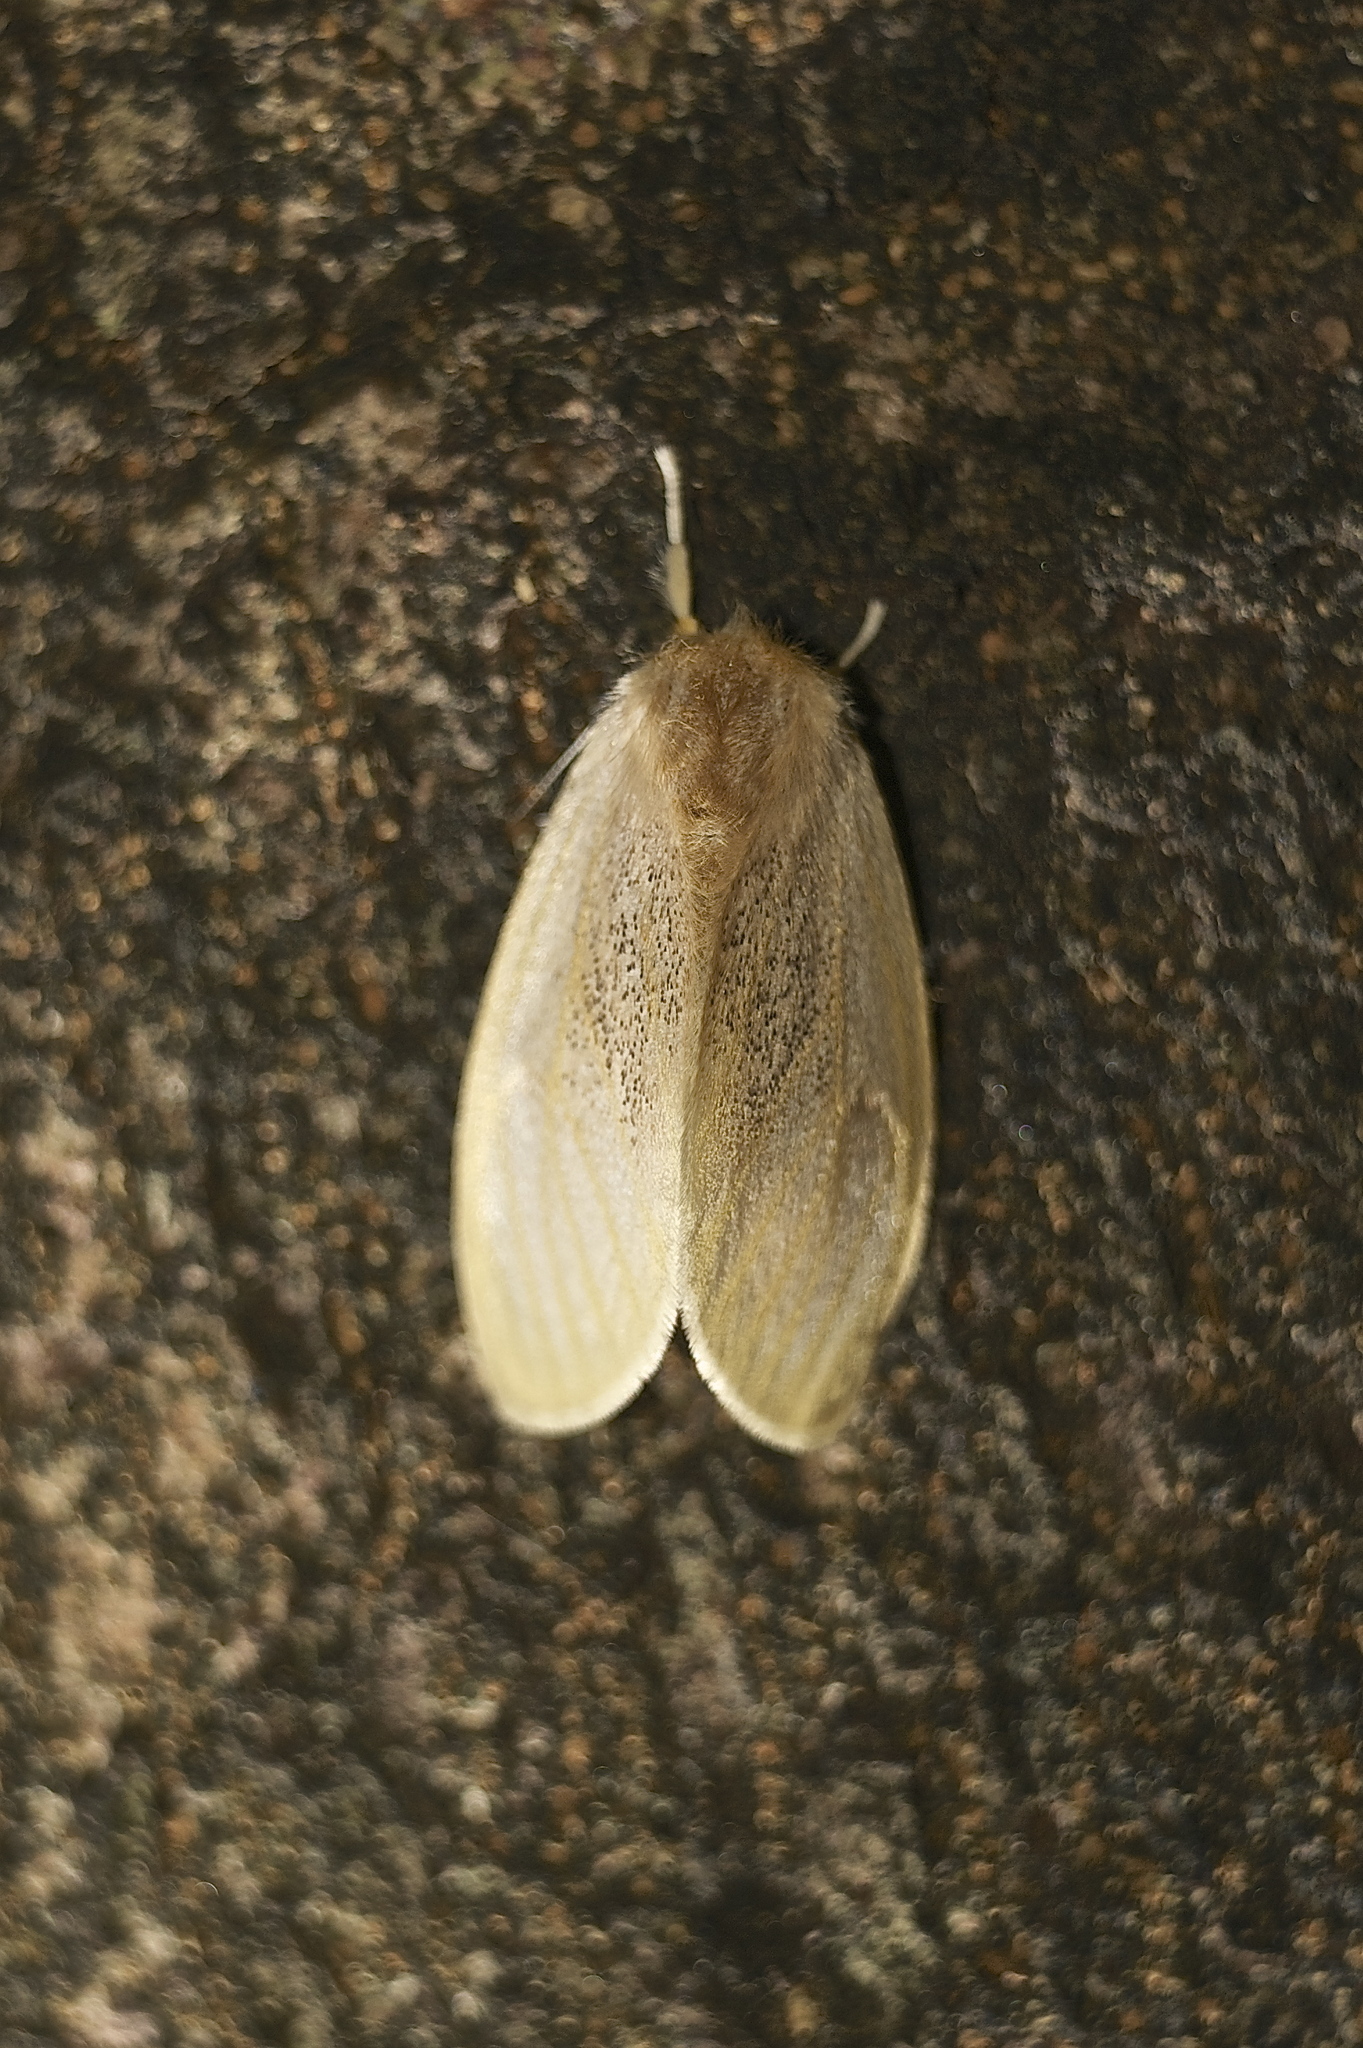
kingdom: Animalia
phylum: Arthropoda
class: Insecta
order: Lepidoptera
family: Erebidae
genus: Perina
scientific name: Perina nuda
